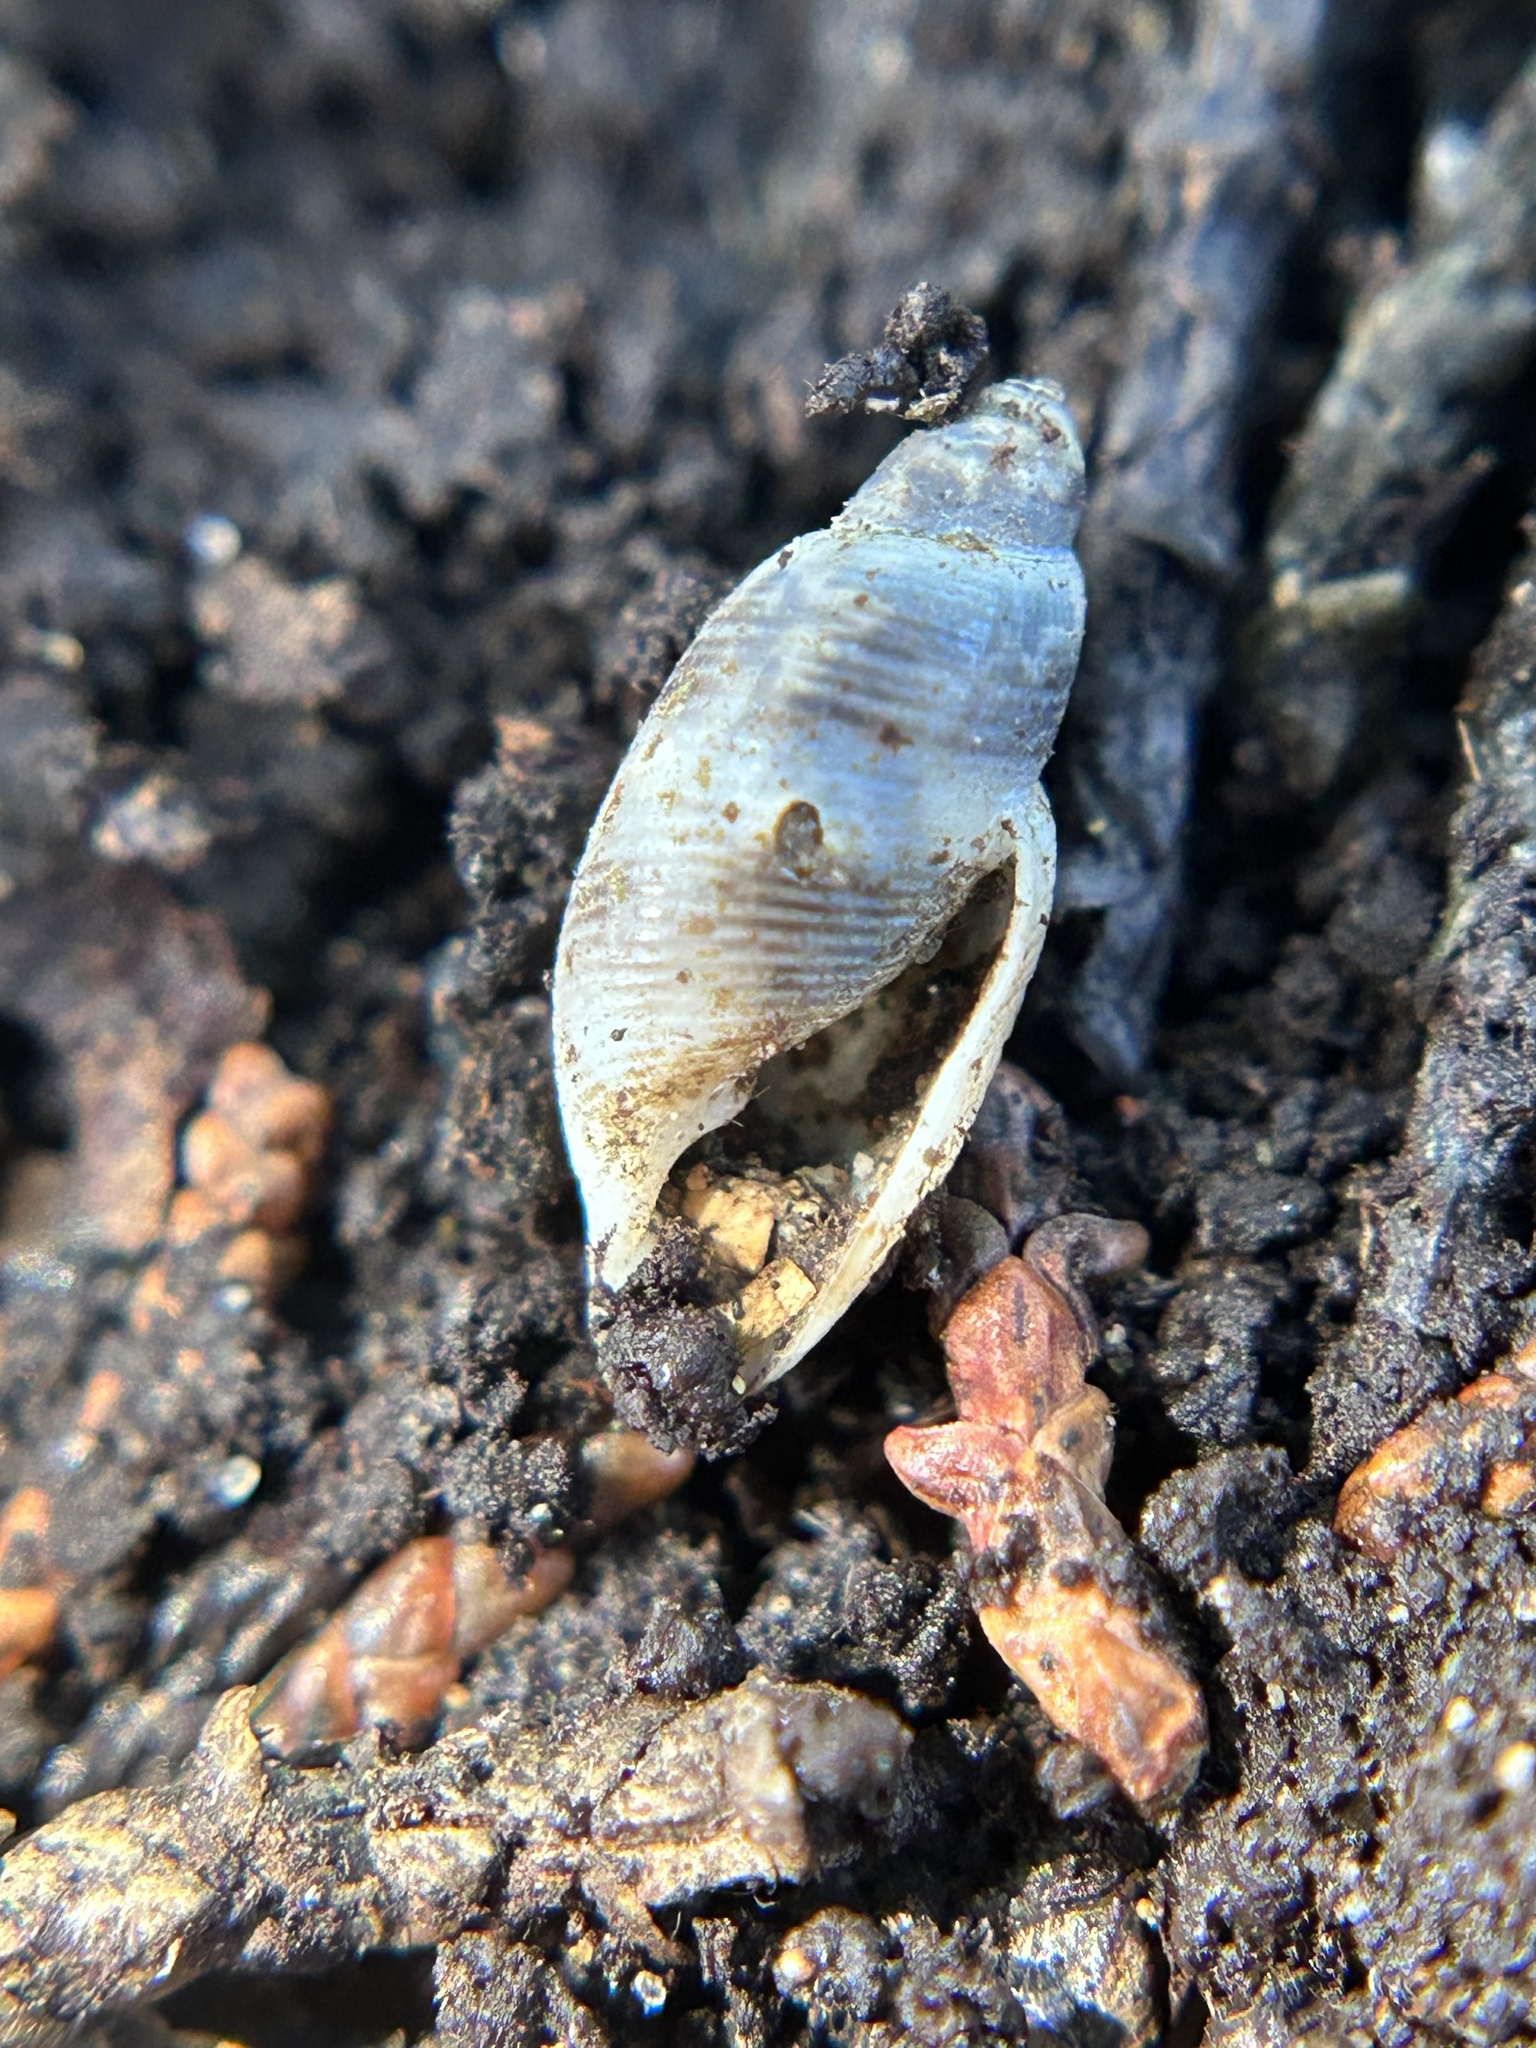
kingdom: Animalia
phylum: Mollusca
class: Gastropoda
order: Cephalaspidea
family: Acteonidae
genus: Rictaxis
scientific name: Rictaxis punctocaelatus
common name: Carpenter's acteon
